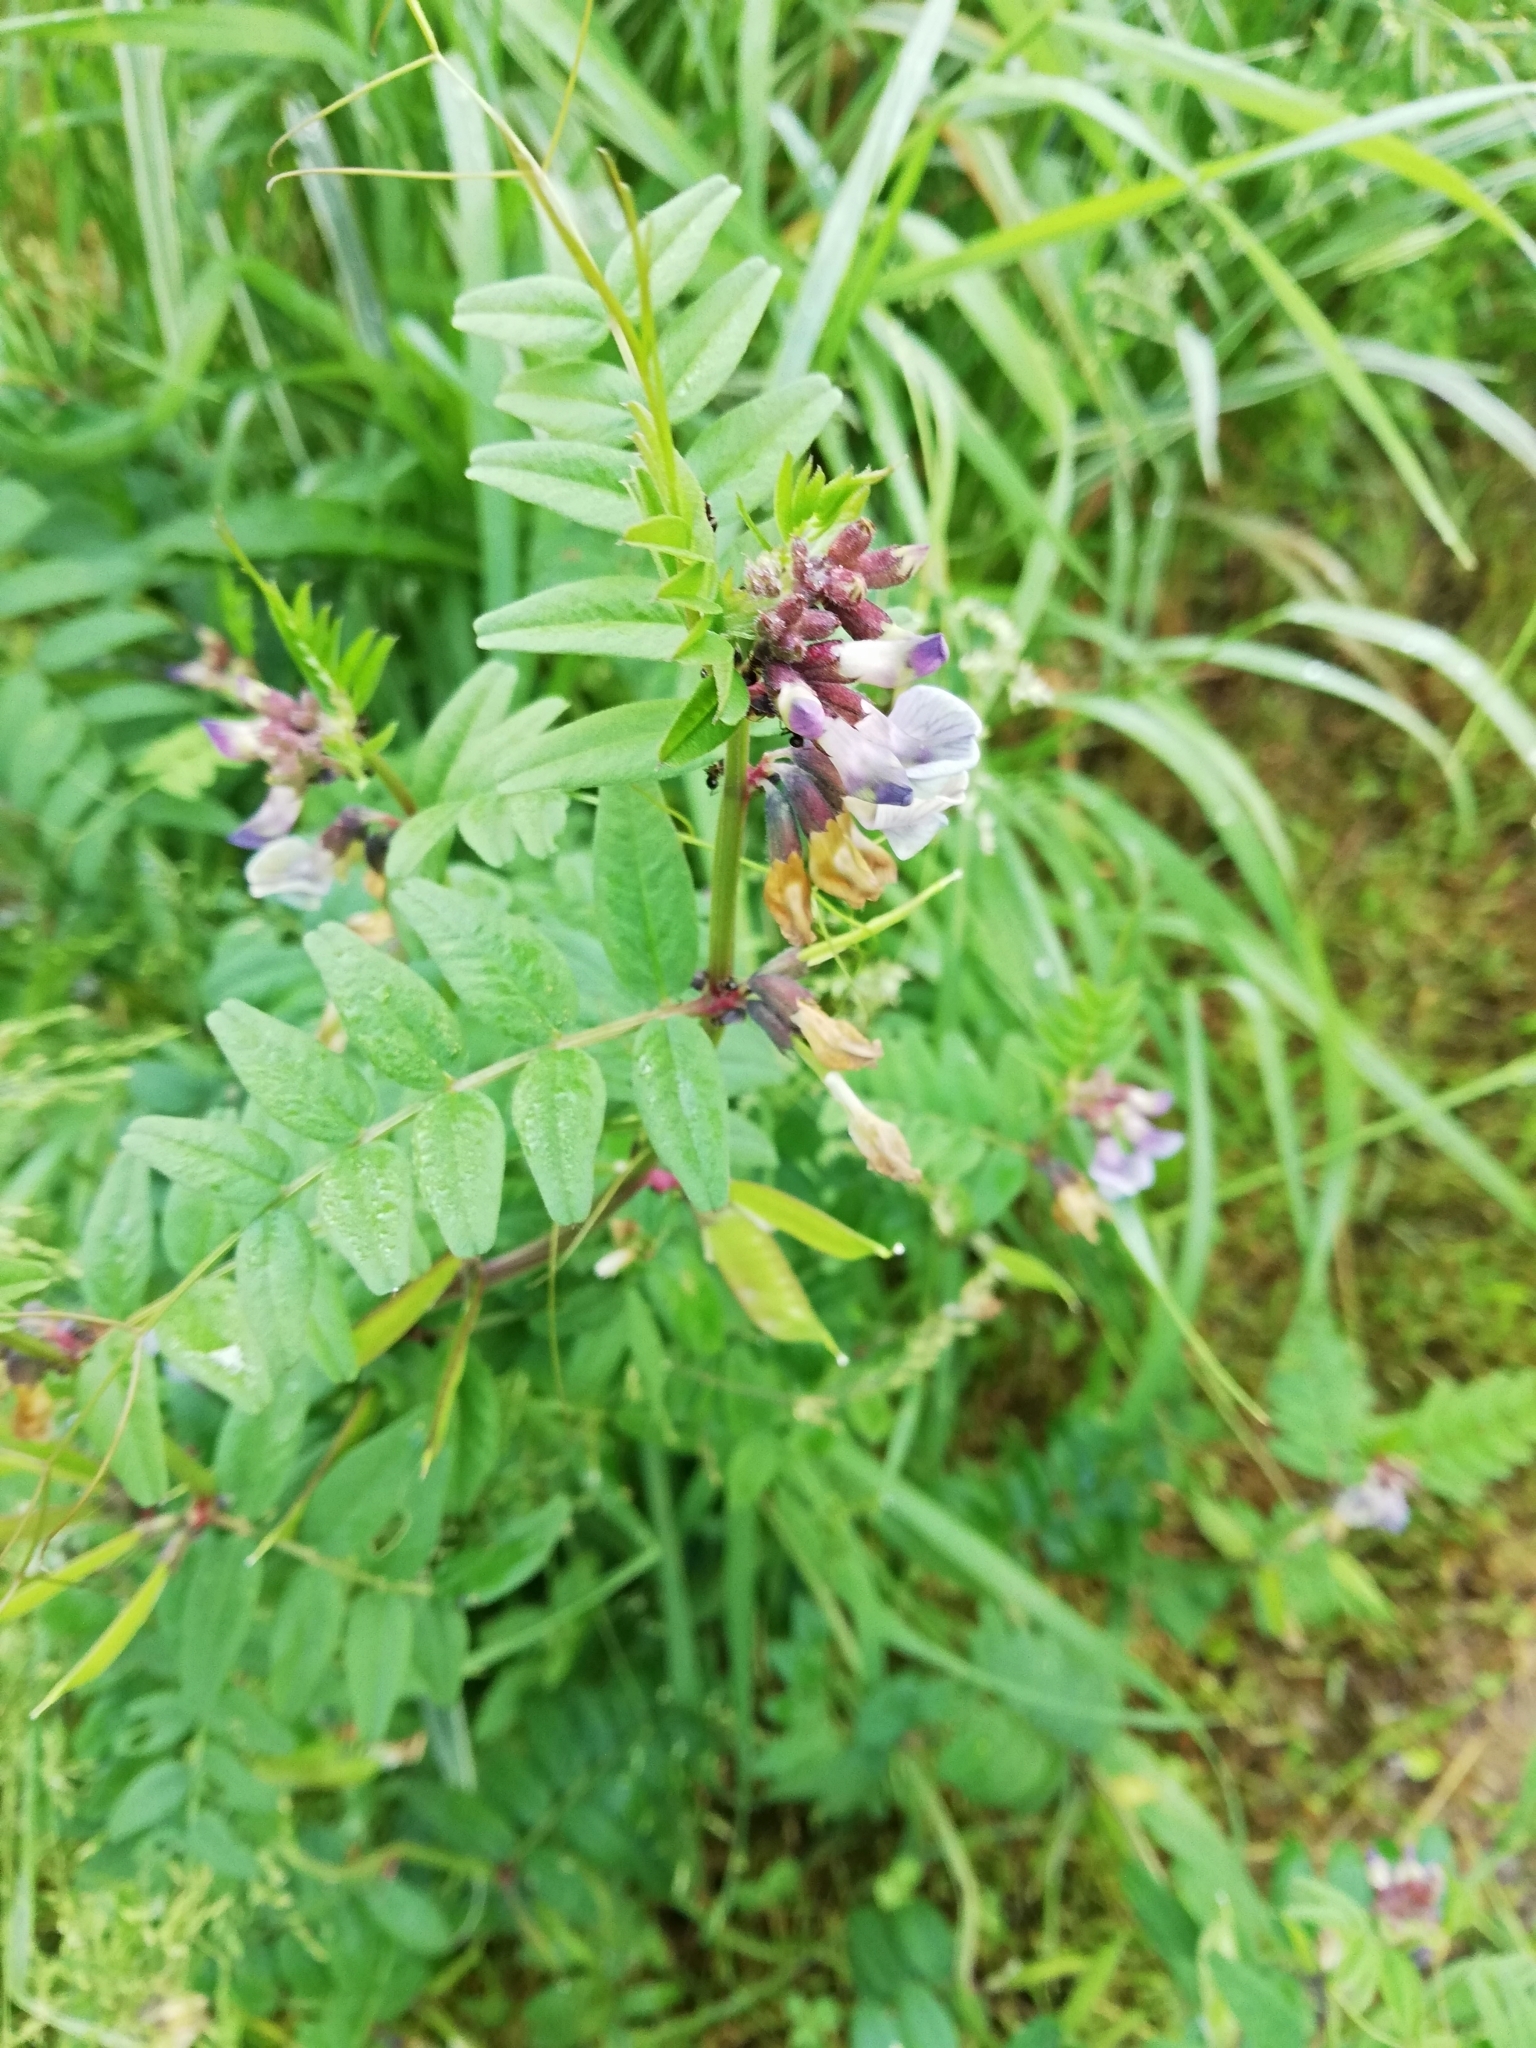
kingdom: Plantae
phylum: Tracheophyta
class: Magnoliopsida
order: Fabales
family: Fabaceae
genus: Vicia
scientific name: Vicia sepium
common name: Bush vetch
